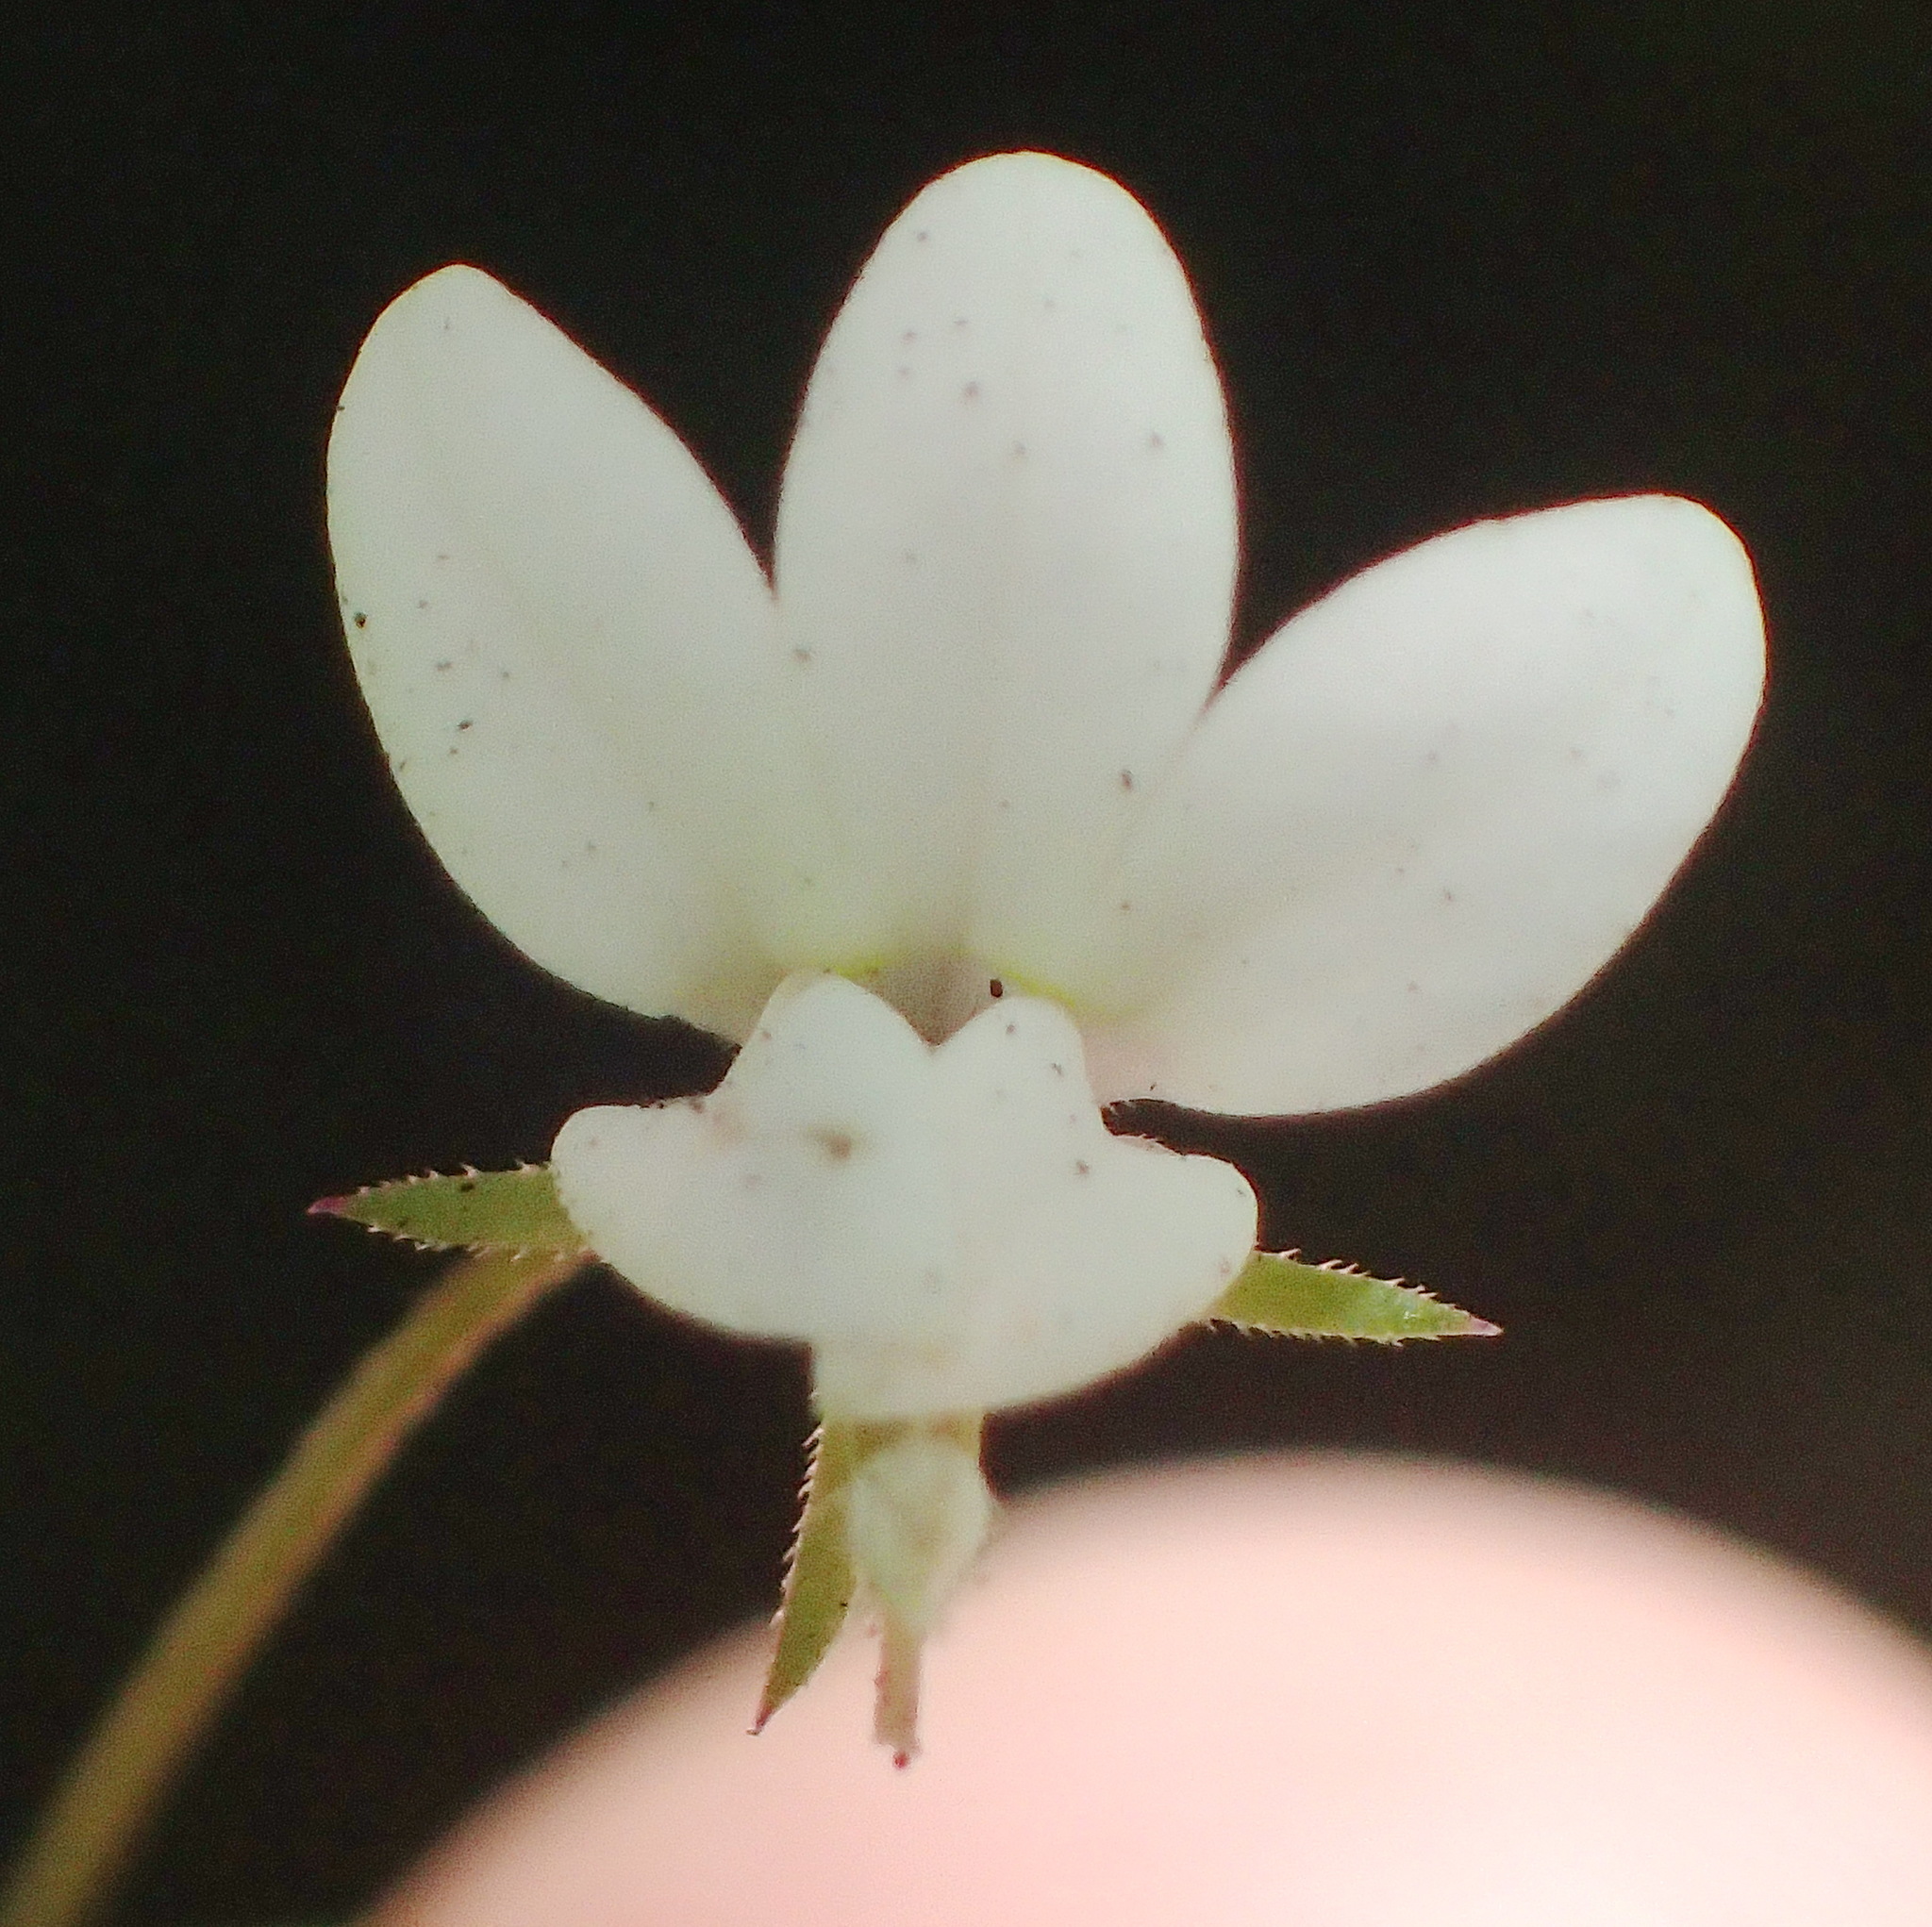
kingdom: Plantae
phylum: Tracheophyta
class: Magnoliopsida
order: Asterales
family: Campanulaceae
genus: Monopsis
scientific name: Monopsis alba
